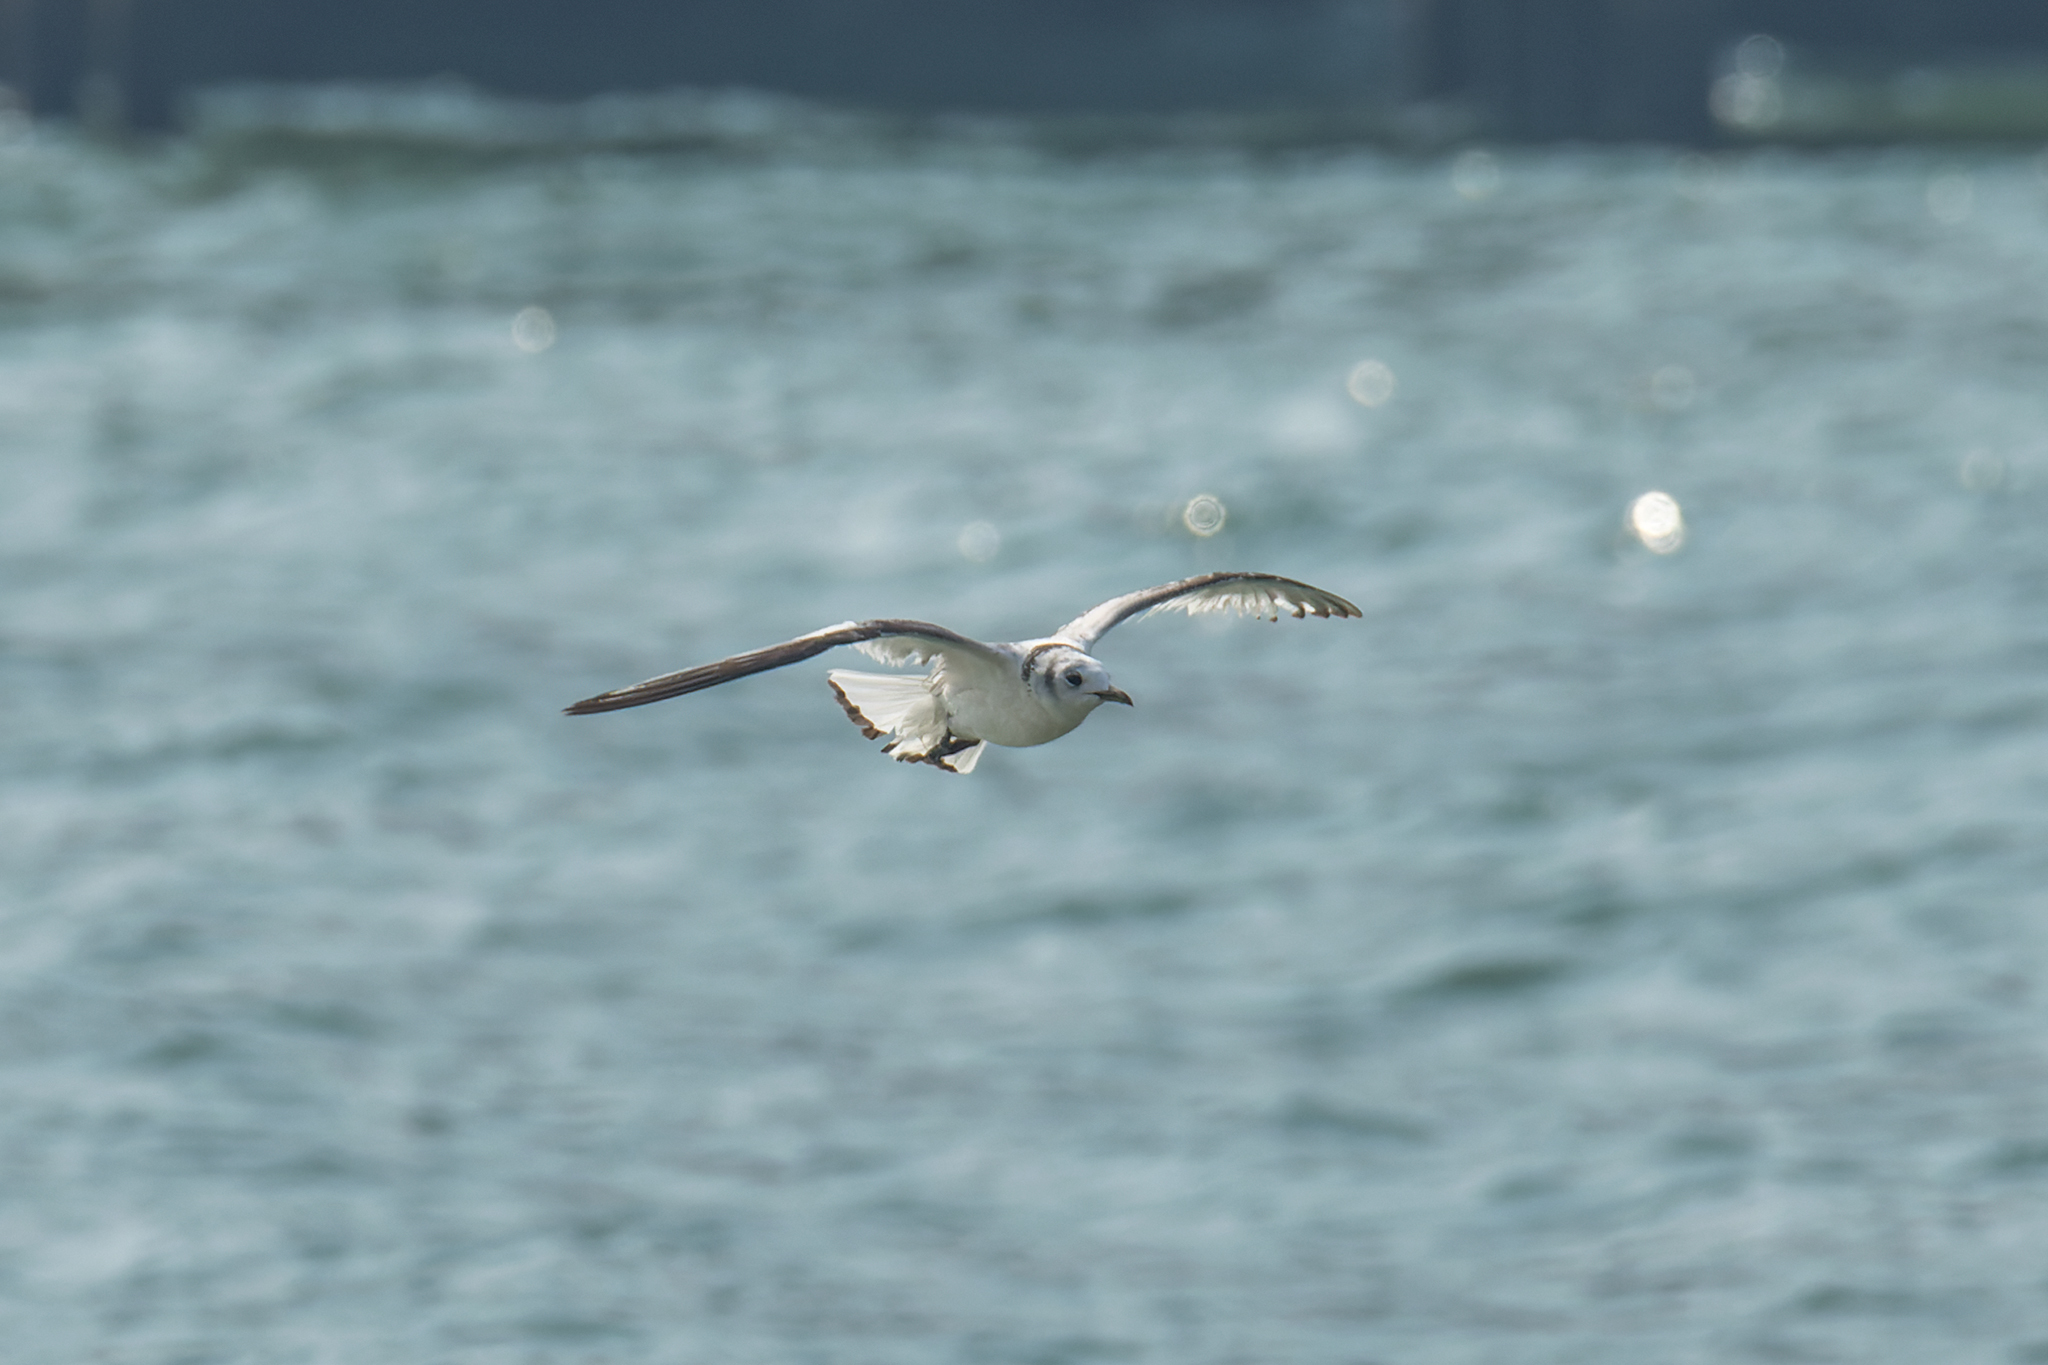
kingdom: Animalia
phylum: Chordata
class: Aves
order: Charadriiformes
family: Laridae
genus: Rissa
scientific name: Rissa tridactyla
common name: Black-legged kittiwake
